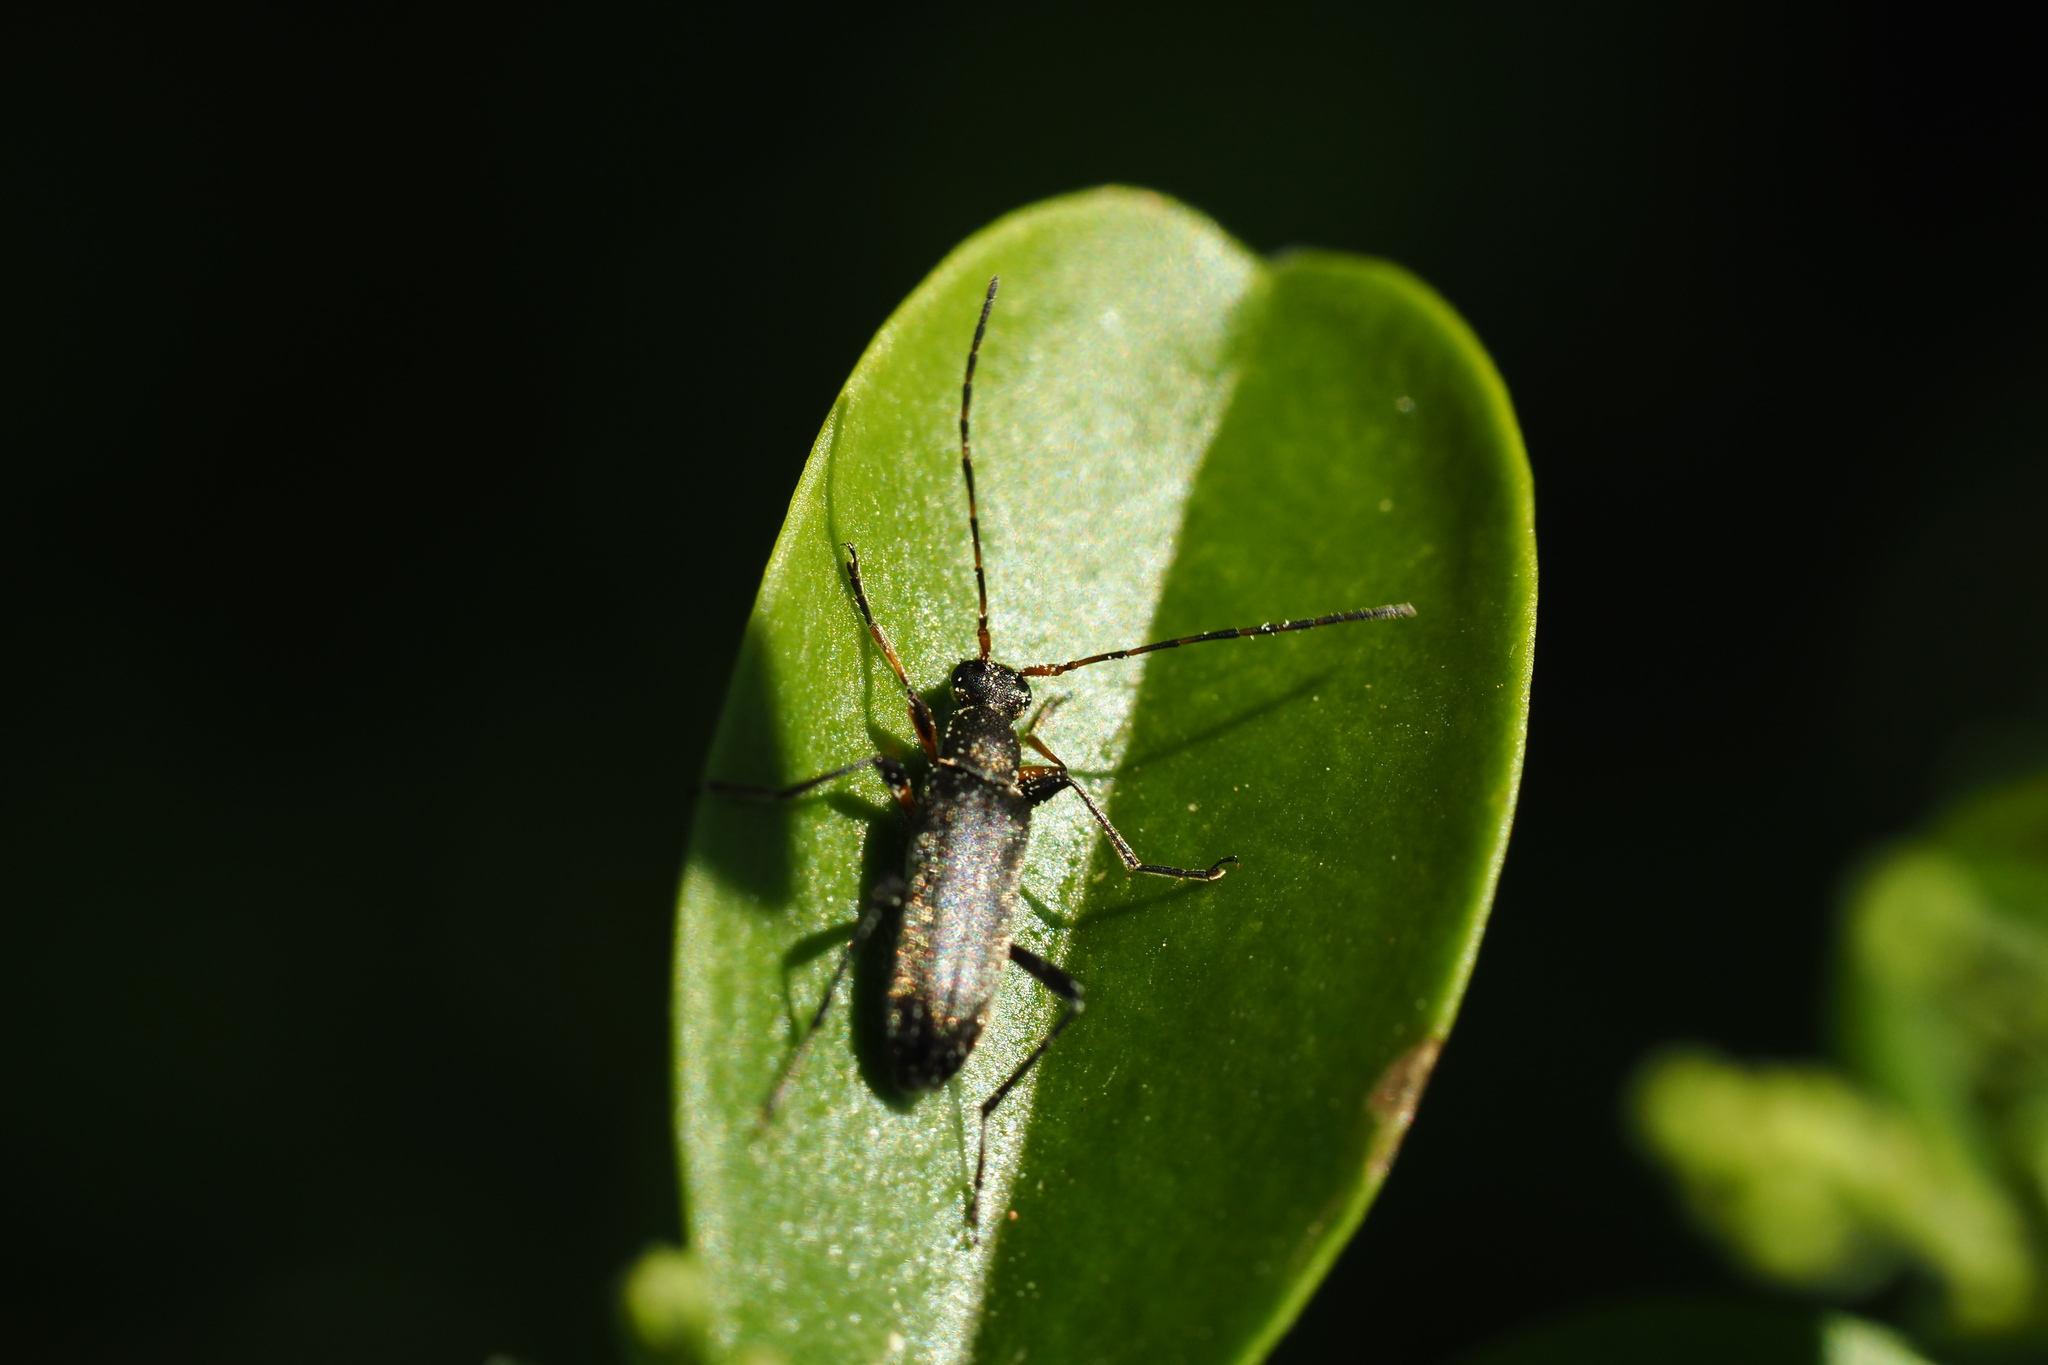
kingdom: Animalia
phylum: Arthropoda
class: Insecta
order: Coleoptera
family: Cerambycidae
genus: Grammoptera
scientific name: Grammoptera ruficornis
